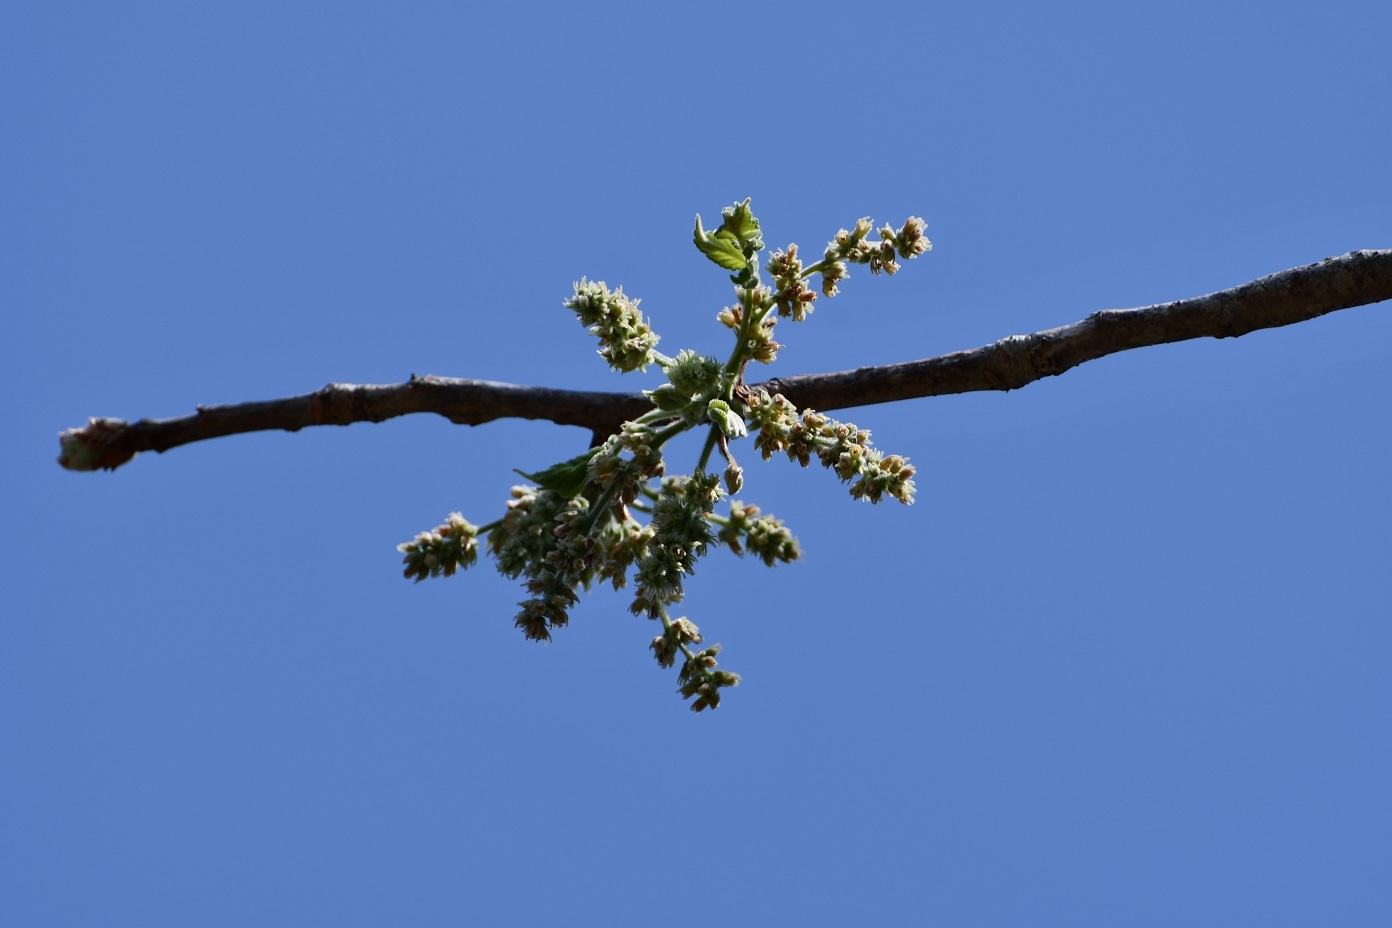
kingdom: Plantae
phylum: Tracheophyta
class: Magnoliopsida
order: Sapindales
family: Burseraceae
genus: Bursera
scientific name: Bursera excelsa
